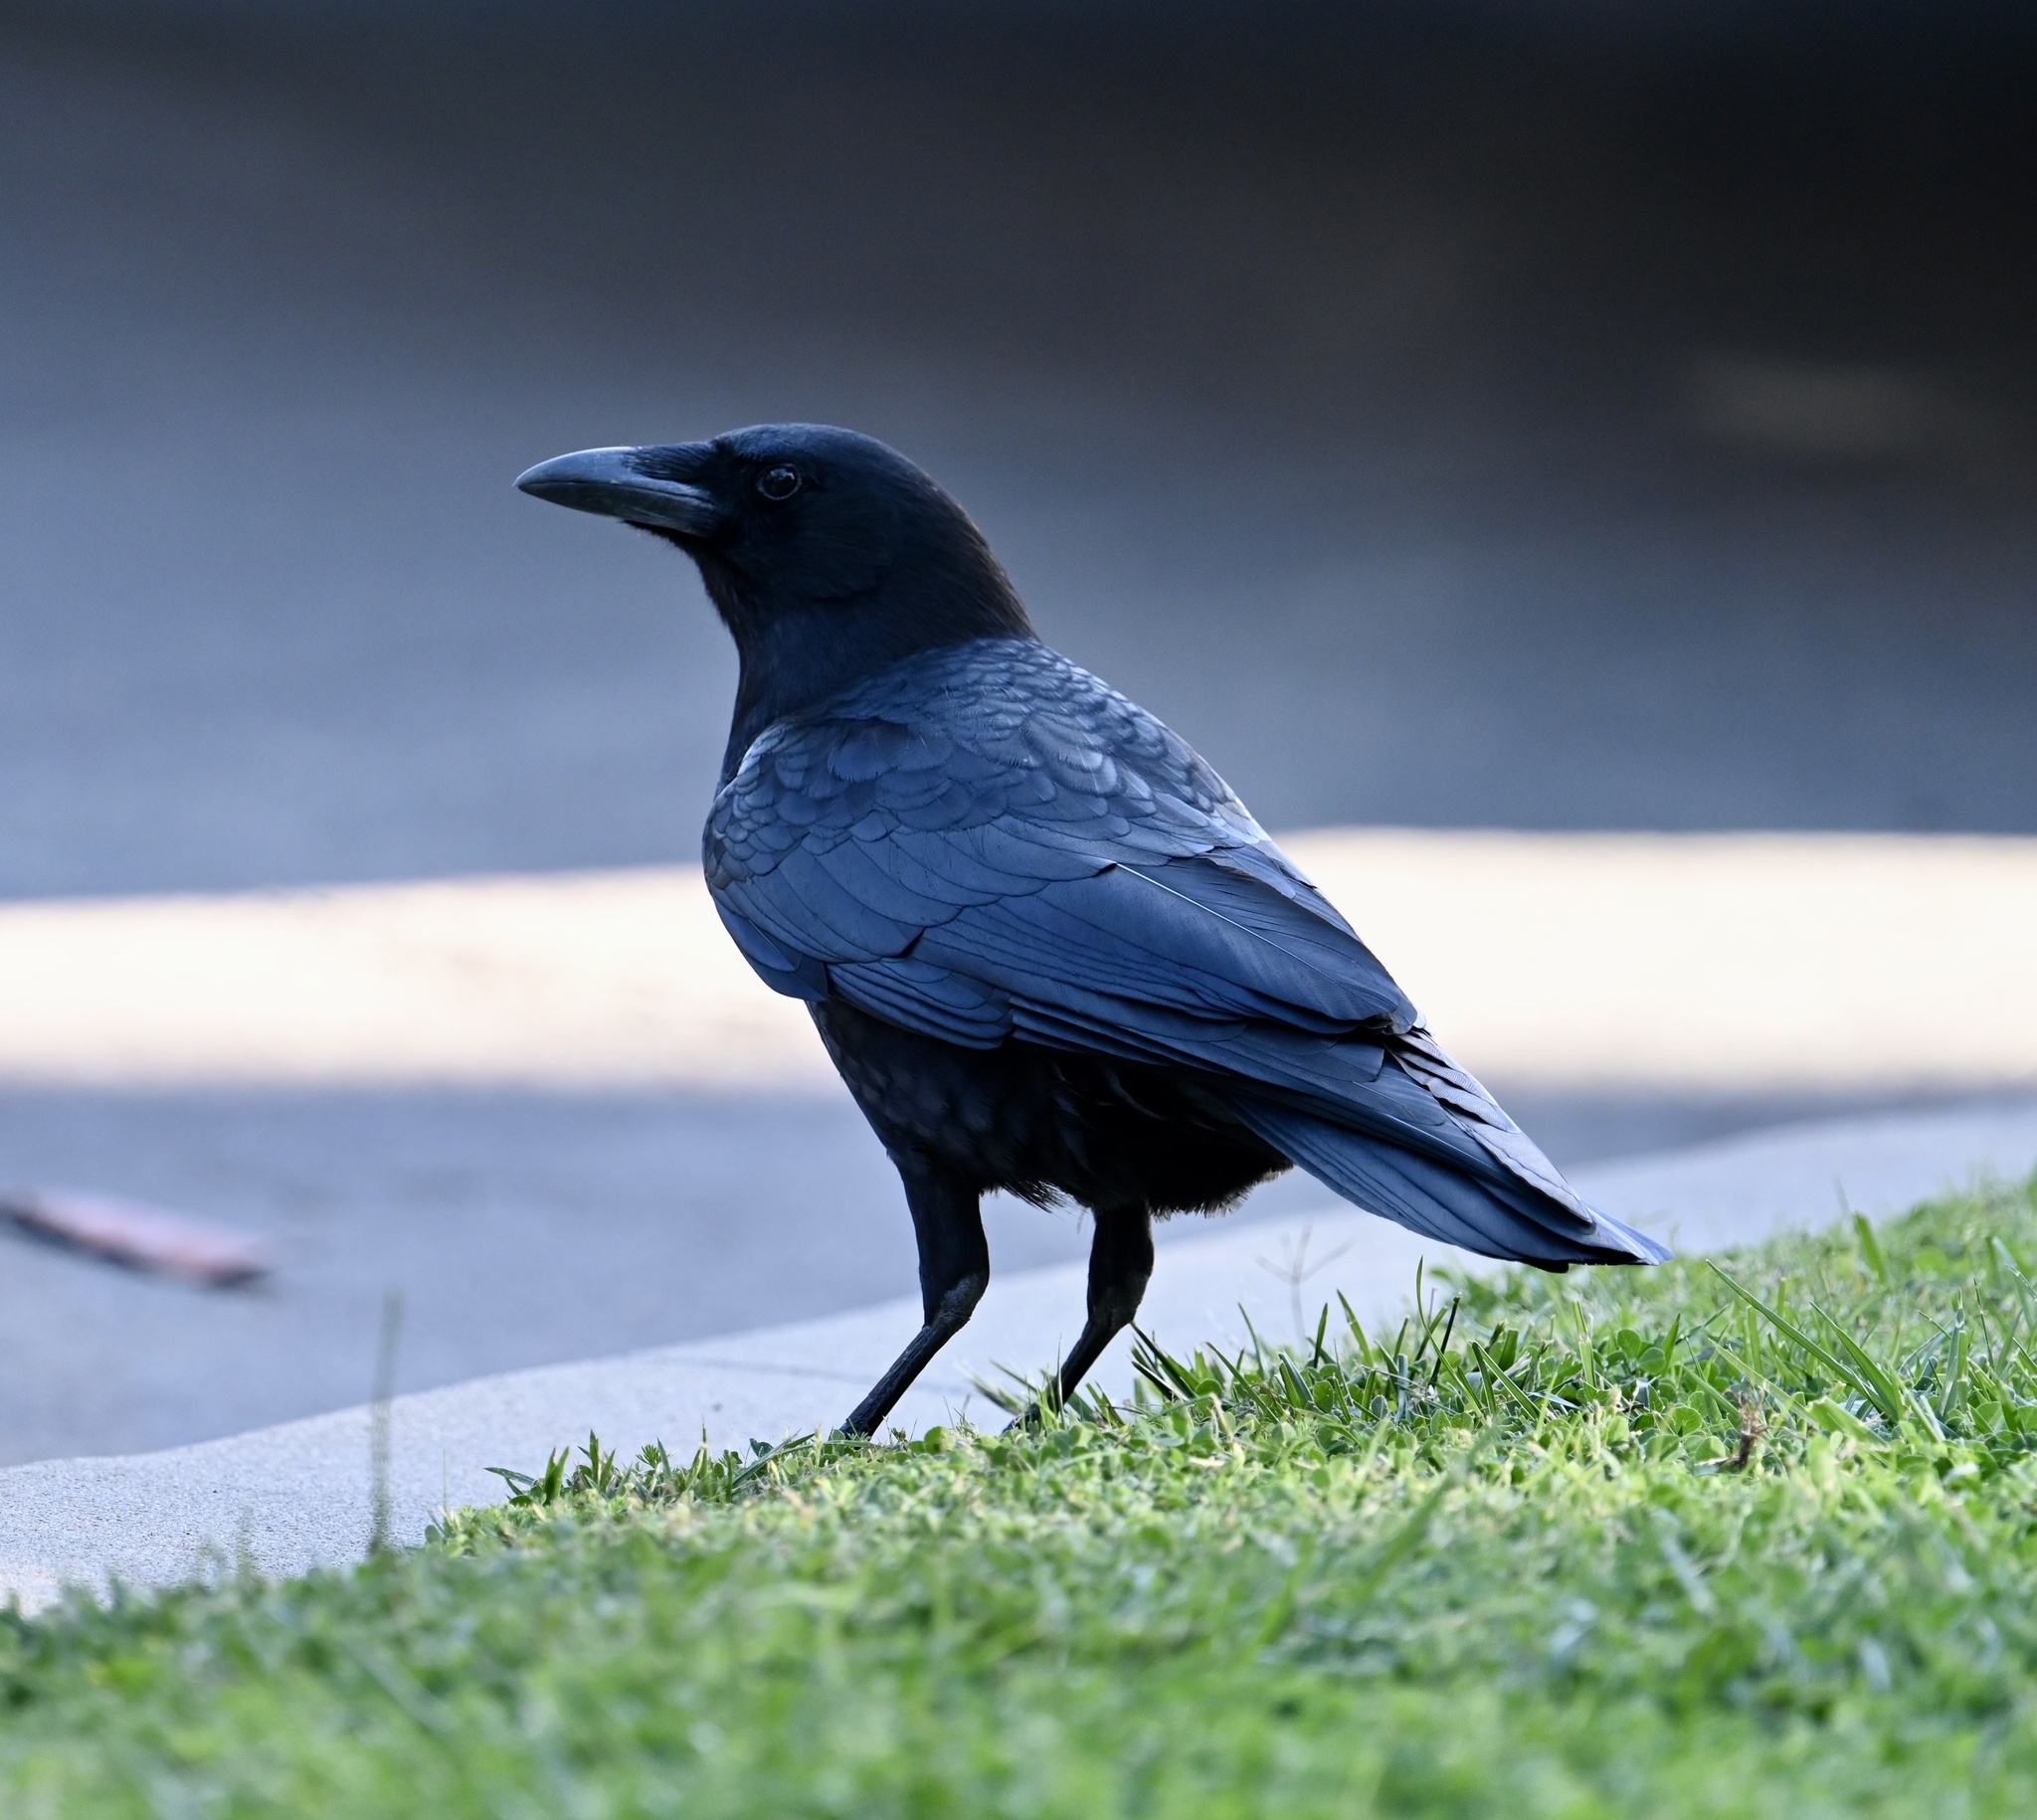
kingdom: Animalia
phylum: Chordata
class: Aves
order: Passeriformes
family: Corvidae
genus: Corvus
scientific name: Corvus brachyrhynchos
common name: American crow
